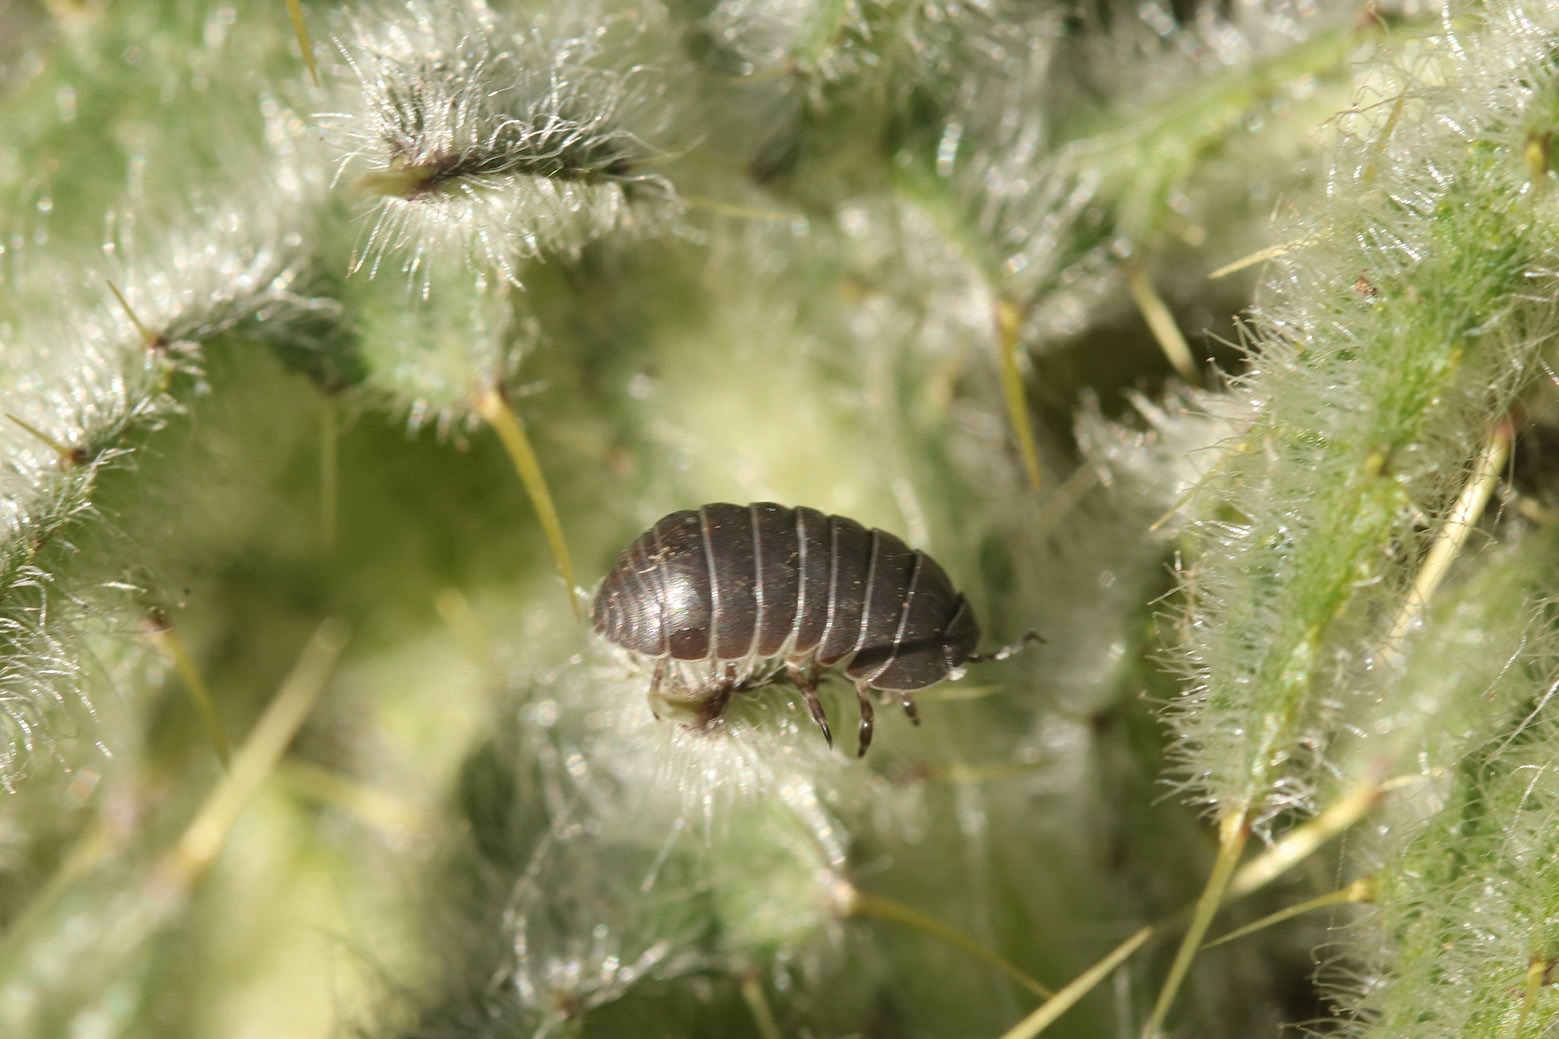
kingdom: Animalia
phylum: Arthropoda
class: Malacostraca
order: Isopoda
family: Armadillidiidae
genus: Armadillidium
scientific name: Armadillidium vulgare
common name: Common pill woodlouse
